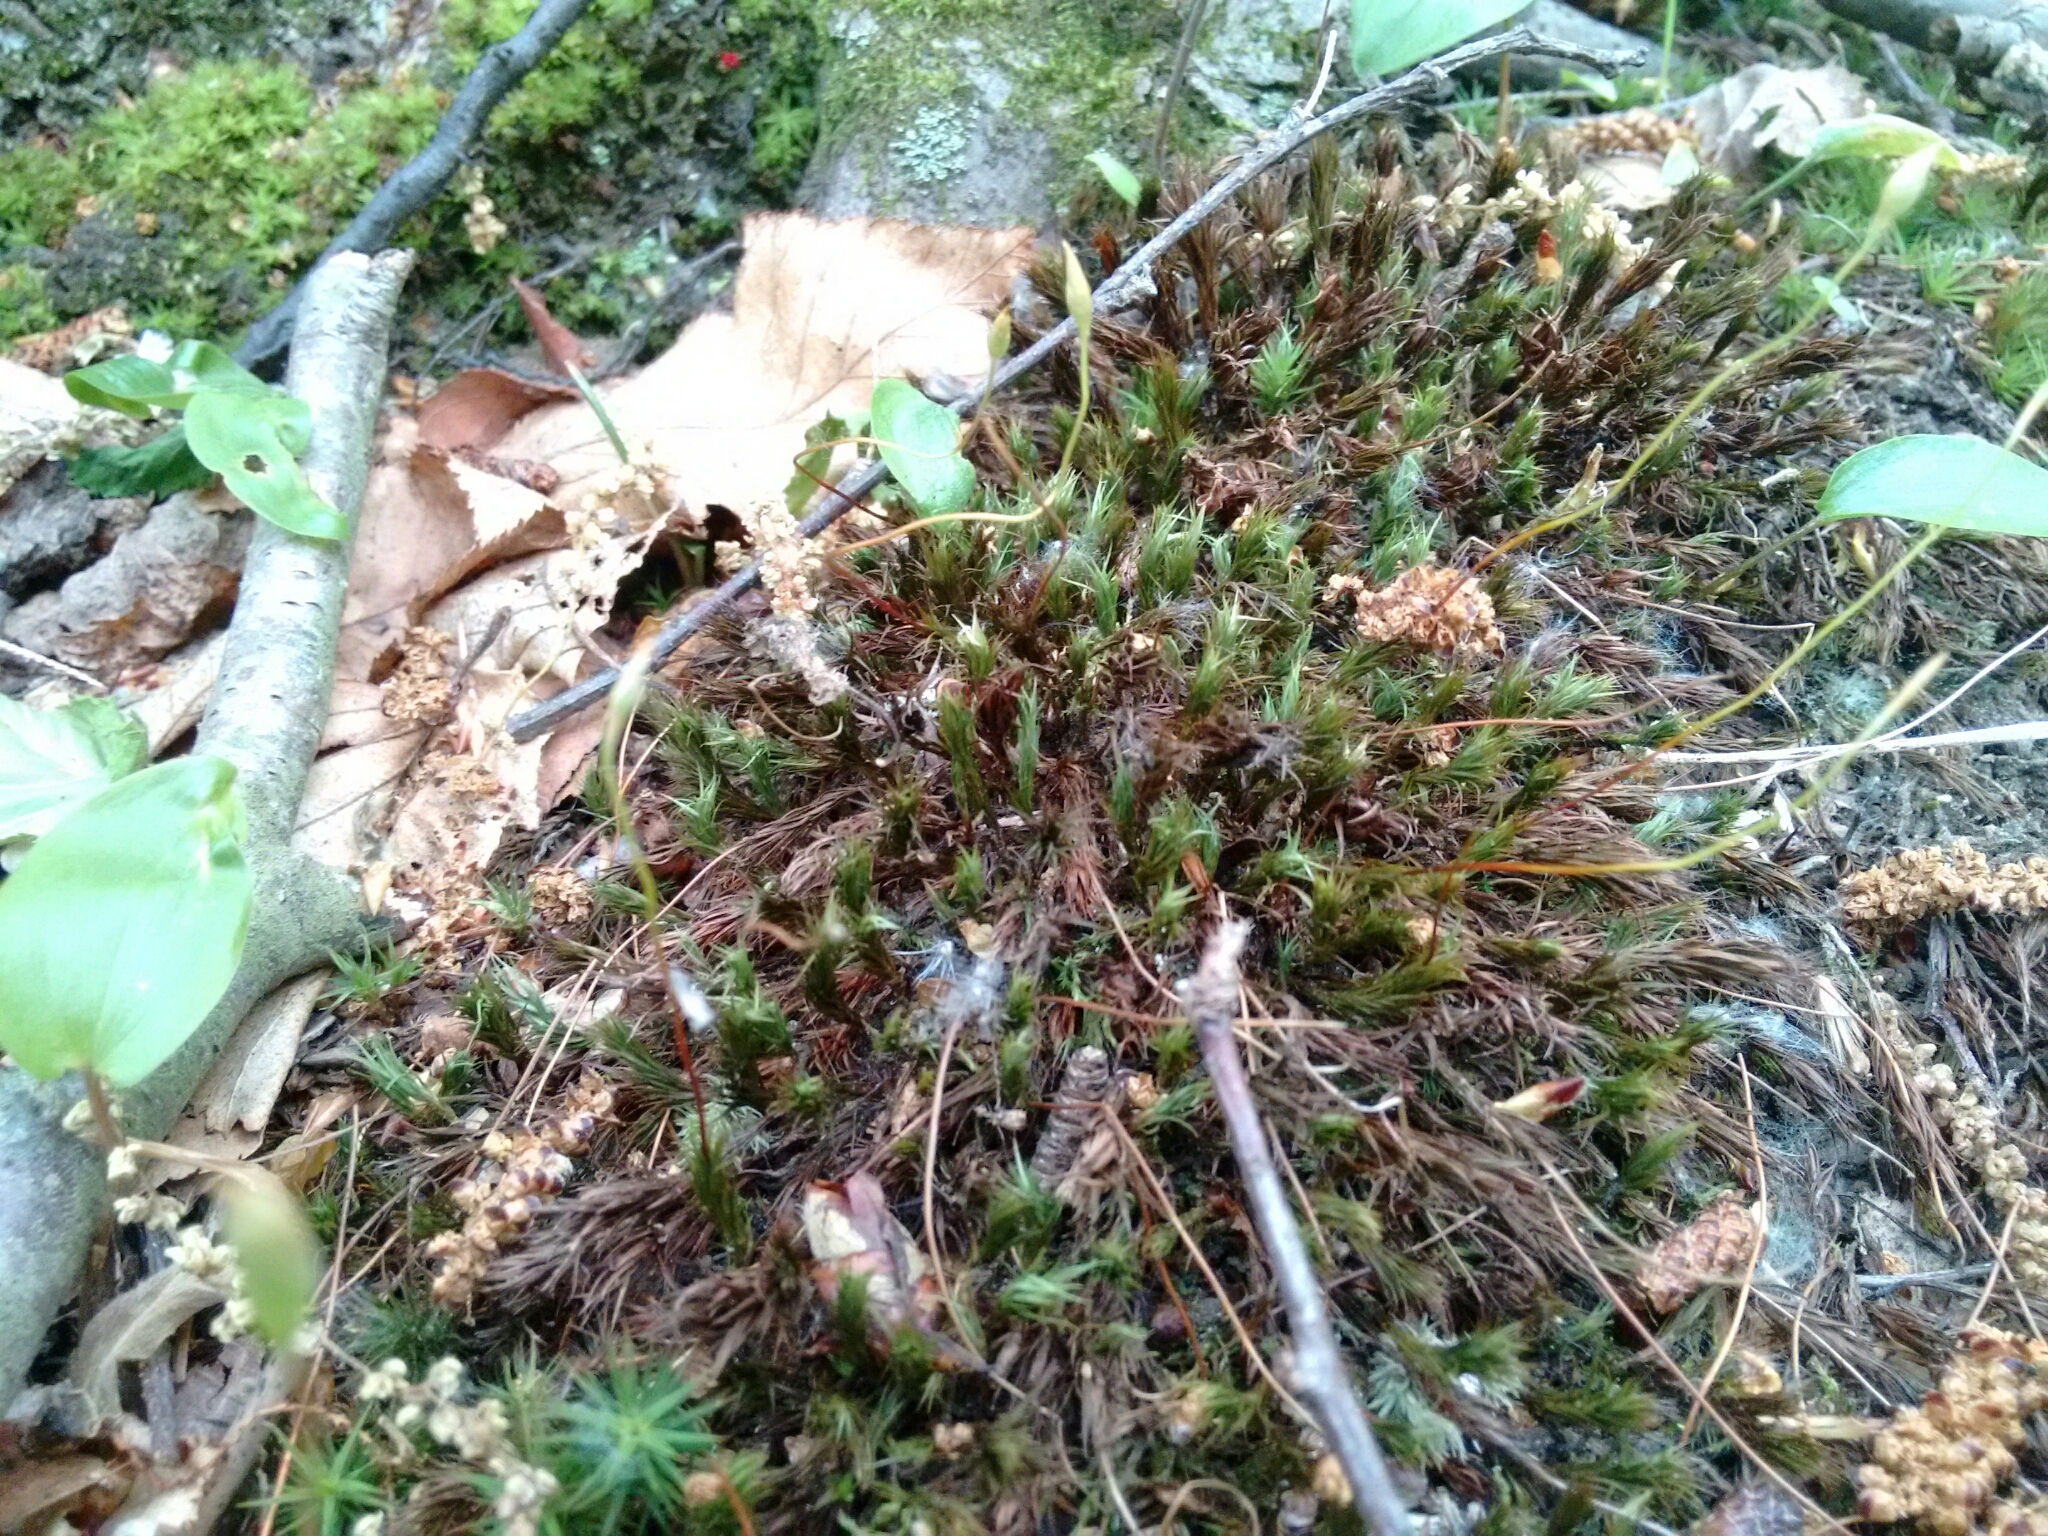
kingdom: Plantae
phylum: Bryophyta
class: Polytrichopsida
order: Polytrichales
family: Polytrichaceae
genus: Polytrichum
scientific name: Polytrichum ohioense
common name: Ohio polytrichum moss
